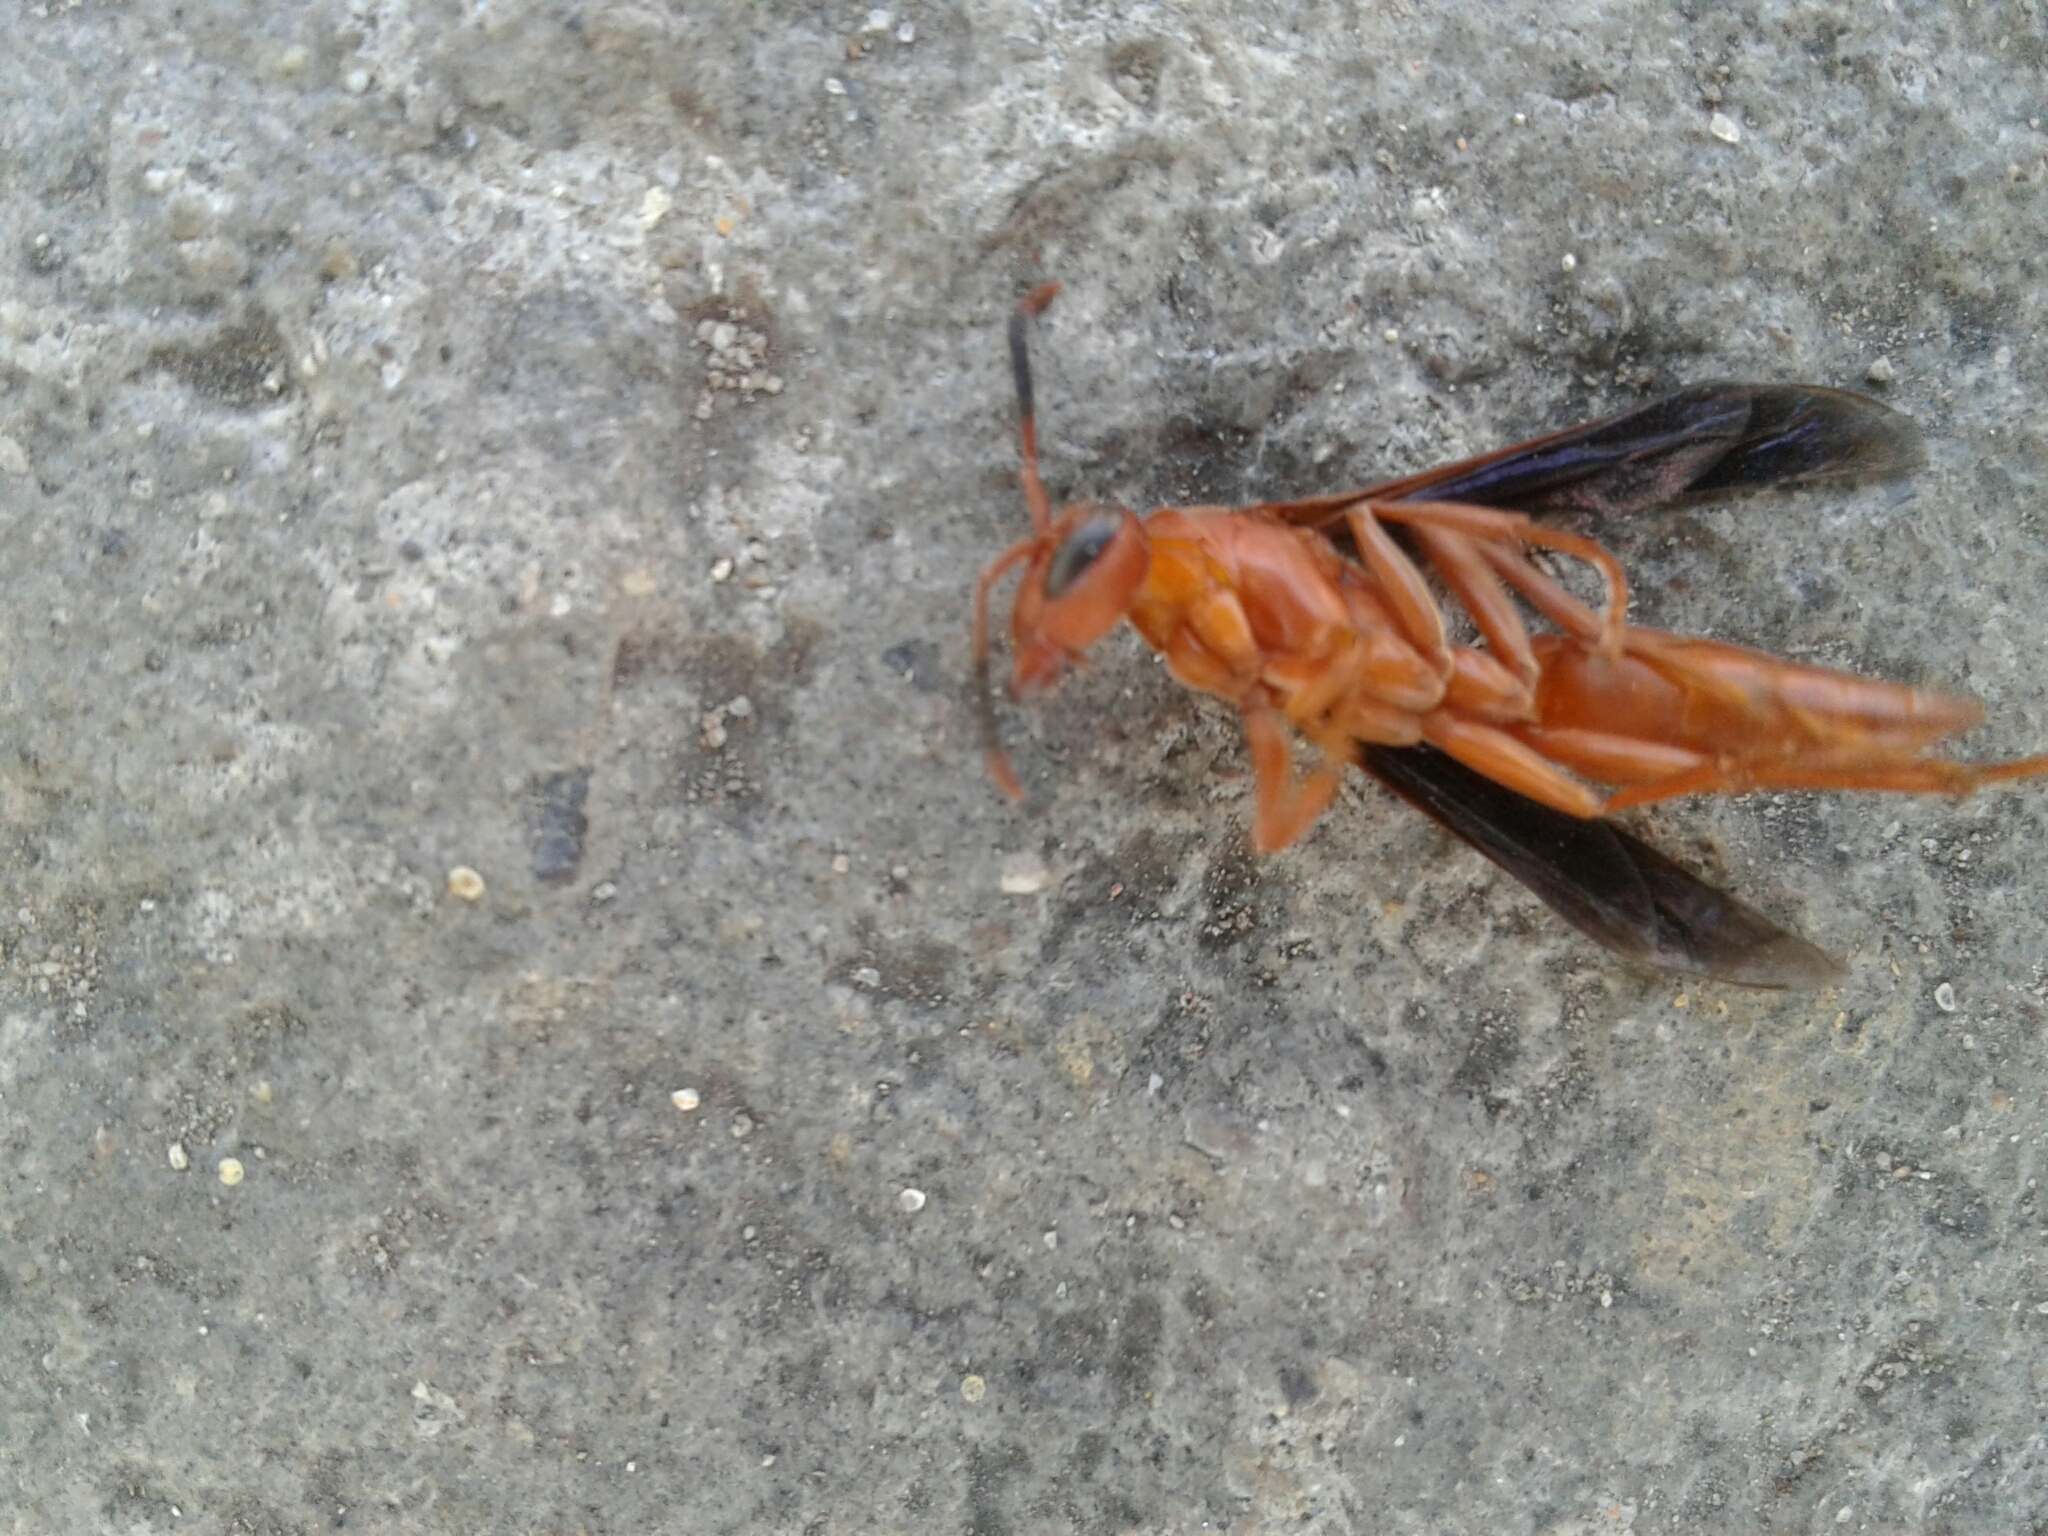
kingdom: Animalia
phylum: Arthropoda
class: Insecta
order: Hymenoptera
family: Eumenidae
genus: Polistes
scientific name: Polistes canadensis
